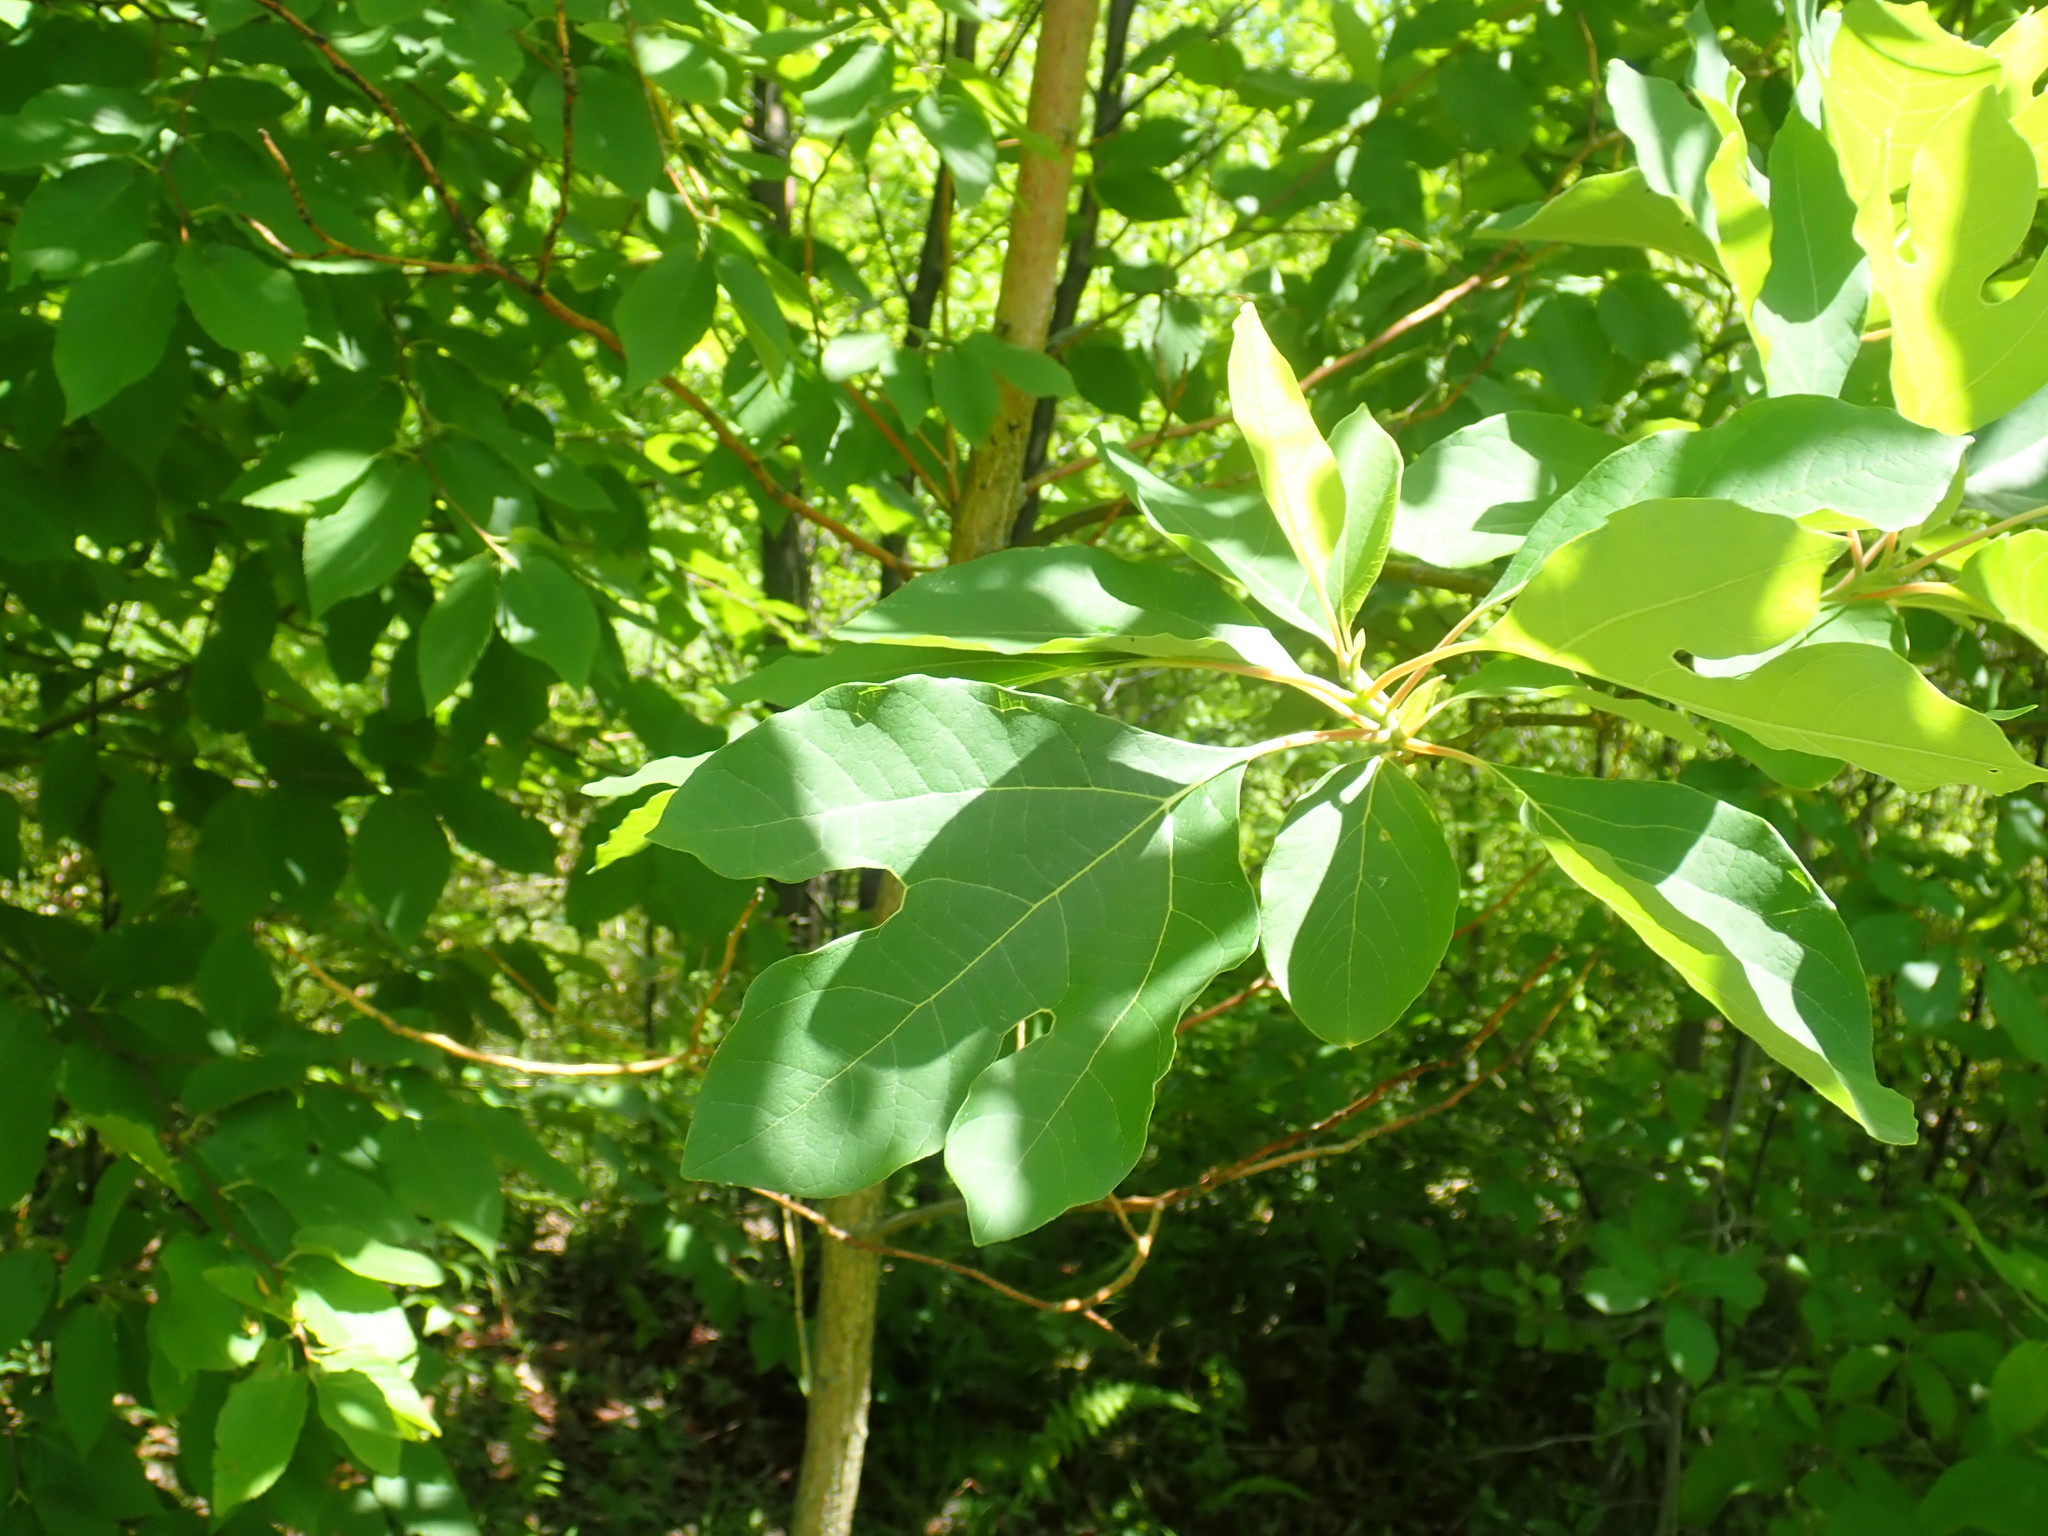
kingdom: Plantae
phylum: Tracheophyta
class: Magnoliopsida
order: Laurales
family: Lauraceae
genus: Sassafras
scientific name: Sassafras albidum
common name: Sassafras
